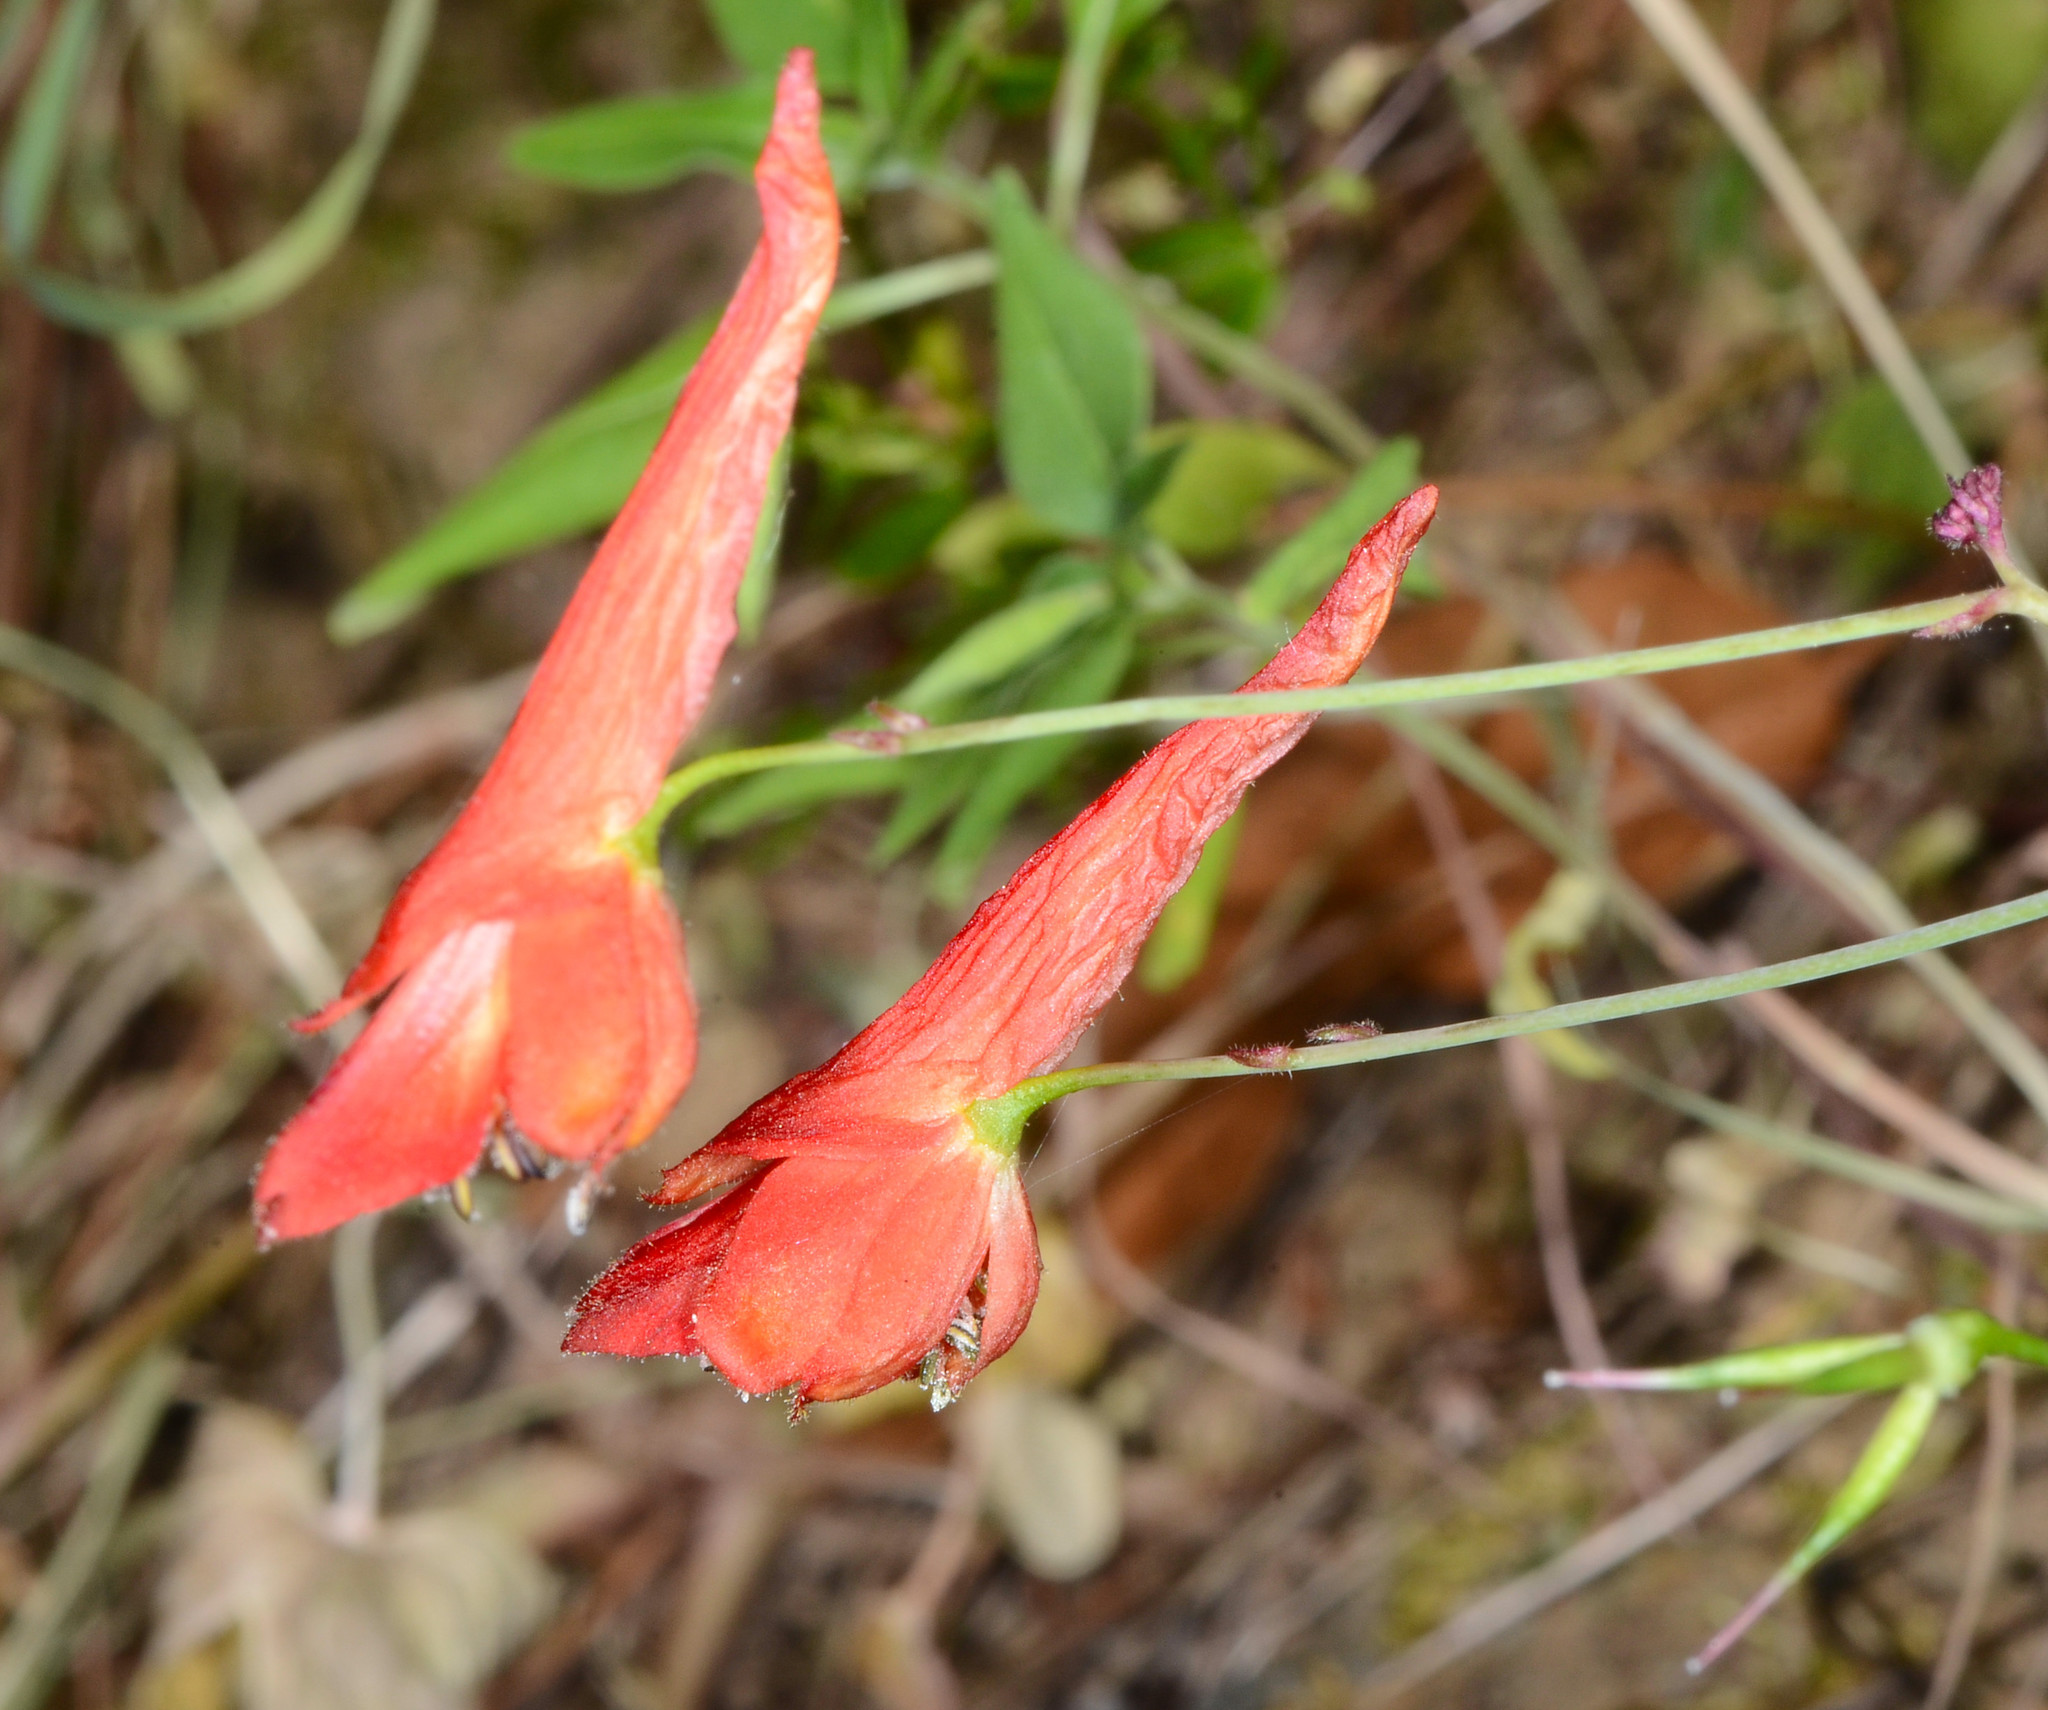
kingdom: Plantae
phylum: Tracheophyta
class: Magnoliopsida
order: Ranunculales
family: Ranunculaceae
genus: Delphinium
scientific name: Delphinium nudicaule
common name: Red larkspur
